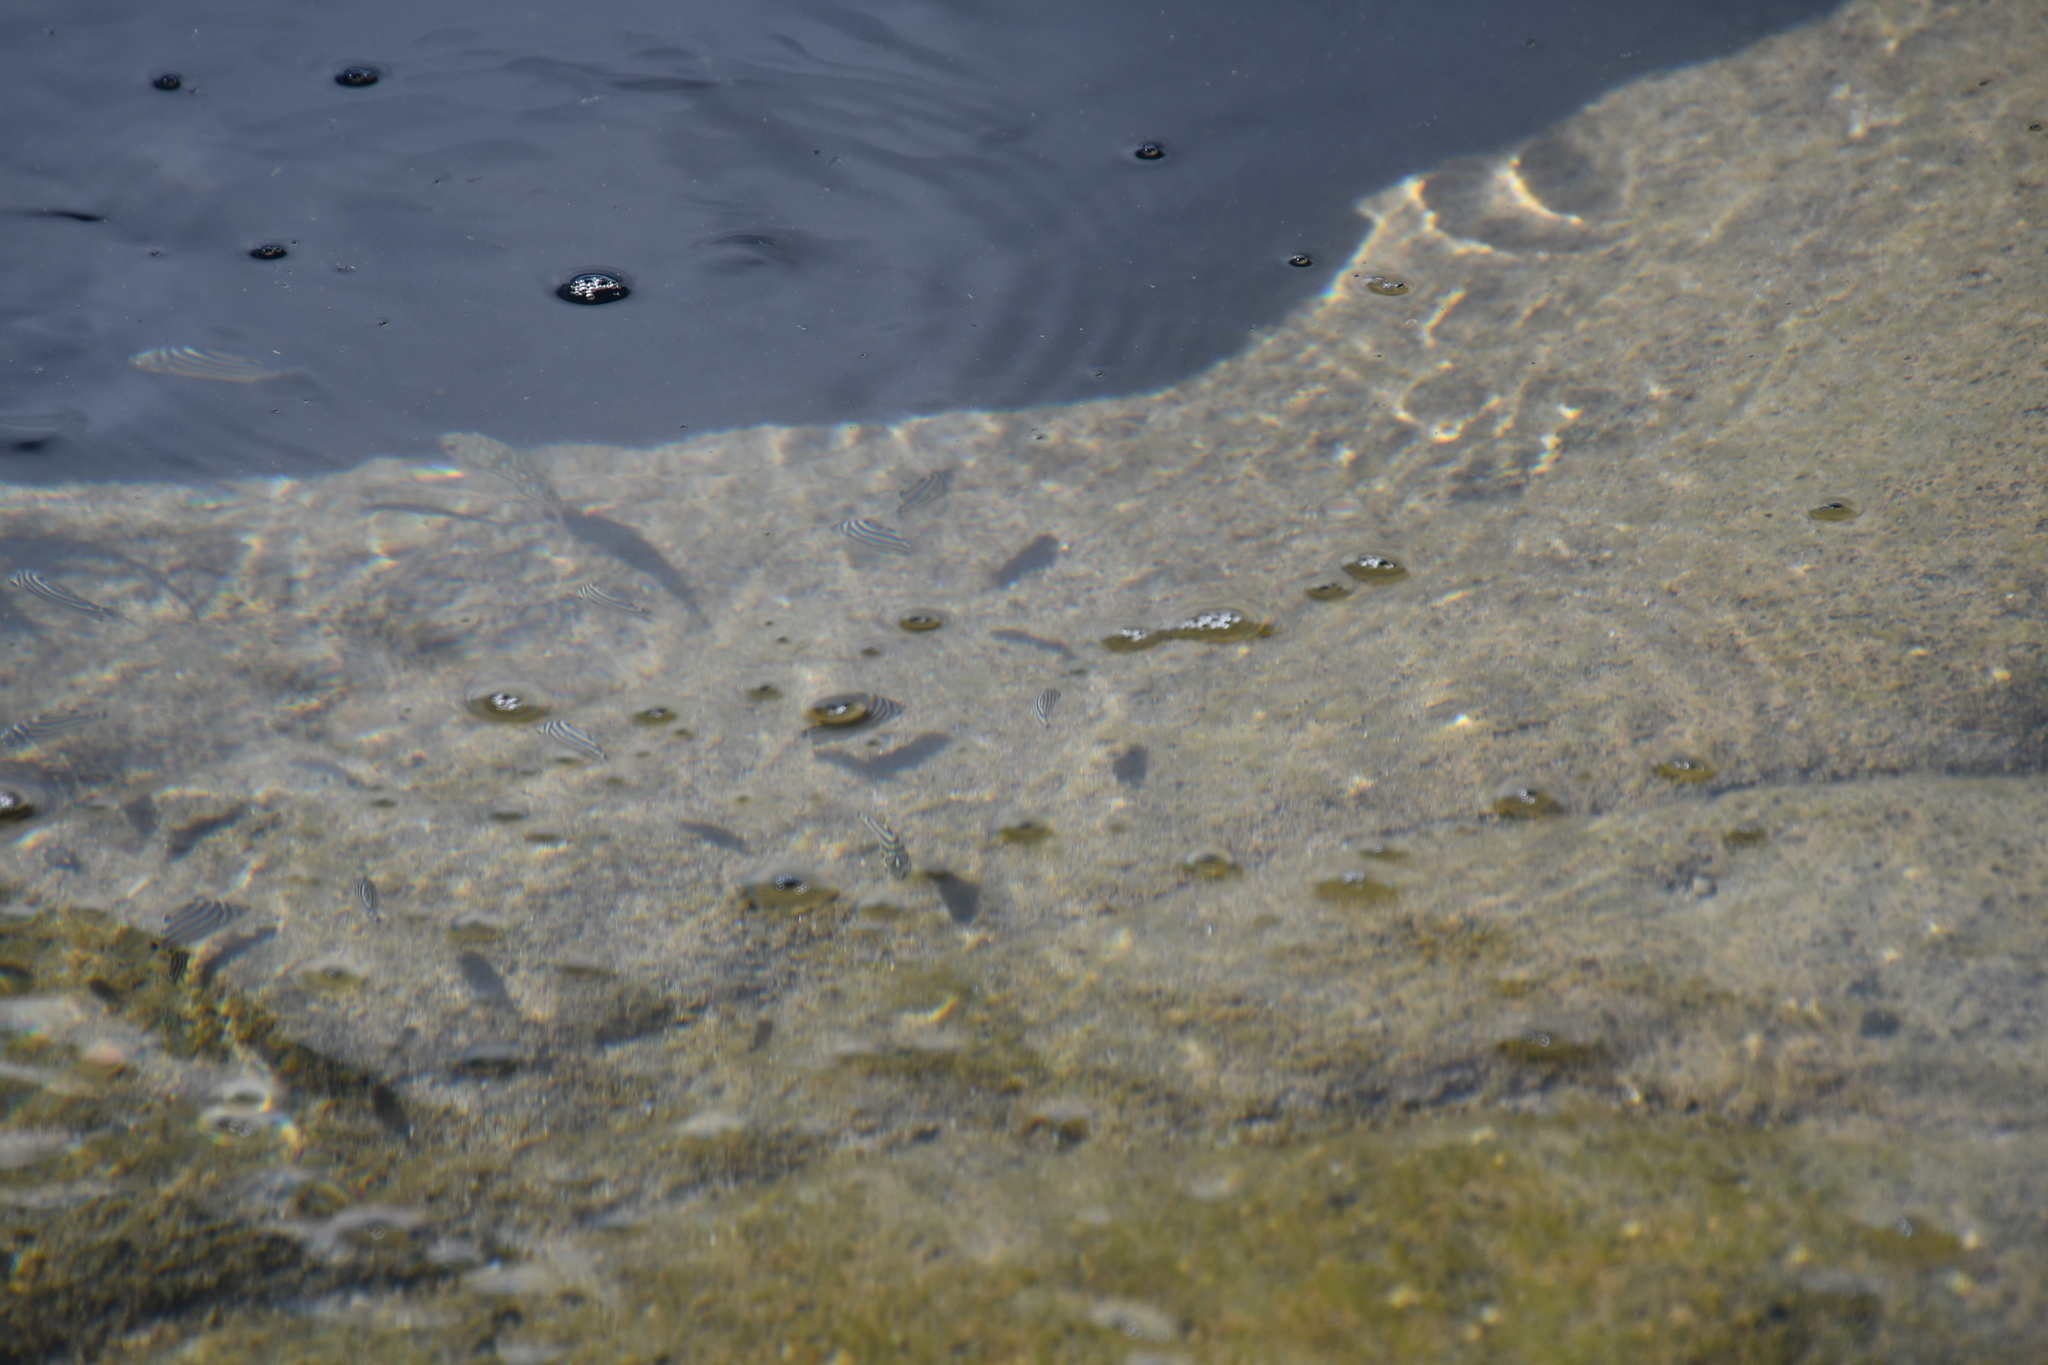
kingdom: Animalia
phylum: Chordata
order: Perciformes
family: Kyphosidae
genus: Microcanthus
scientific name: Microcanthus strigatus
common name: Stripey
